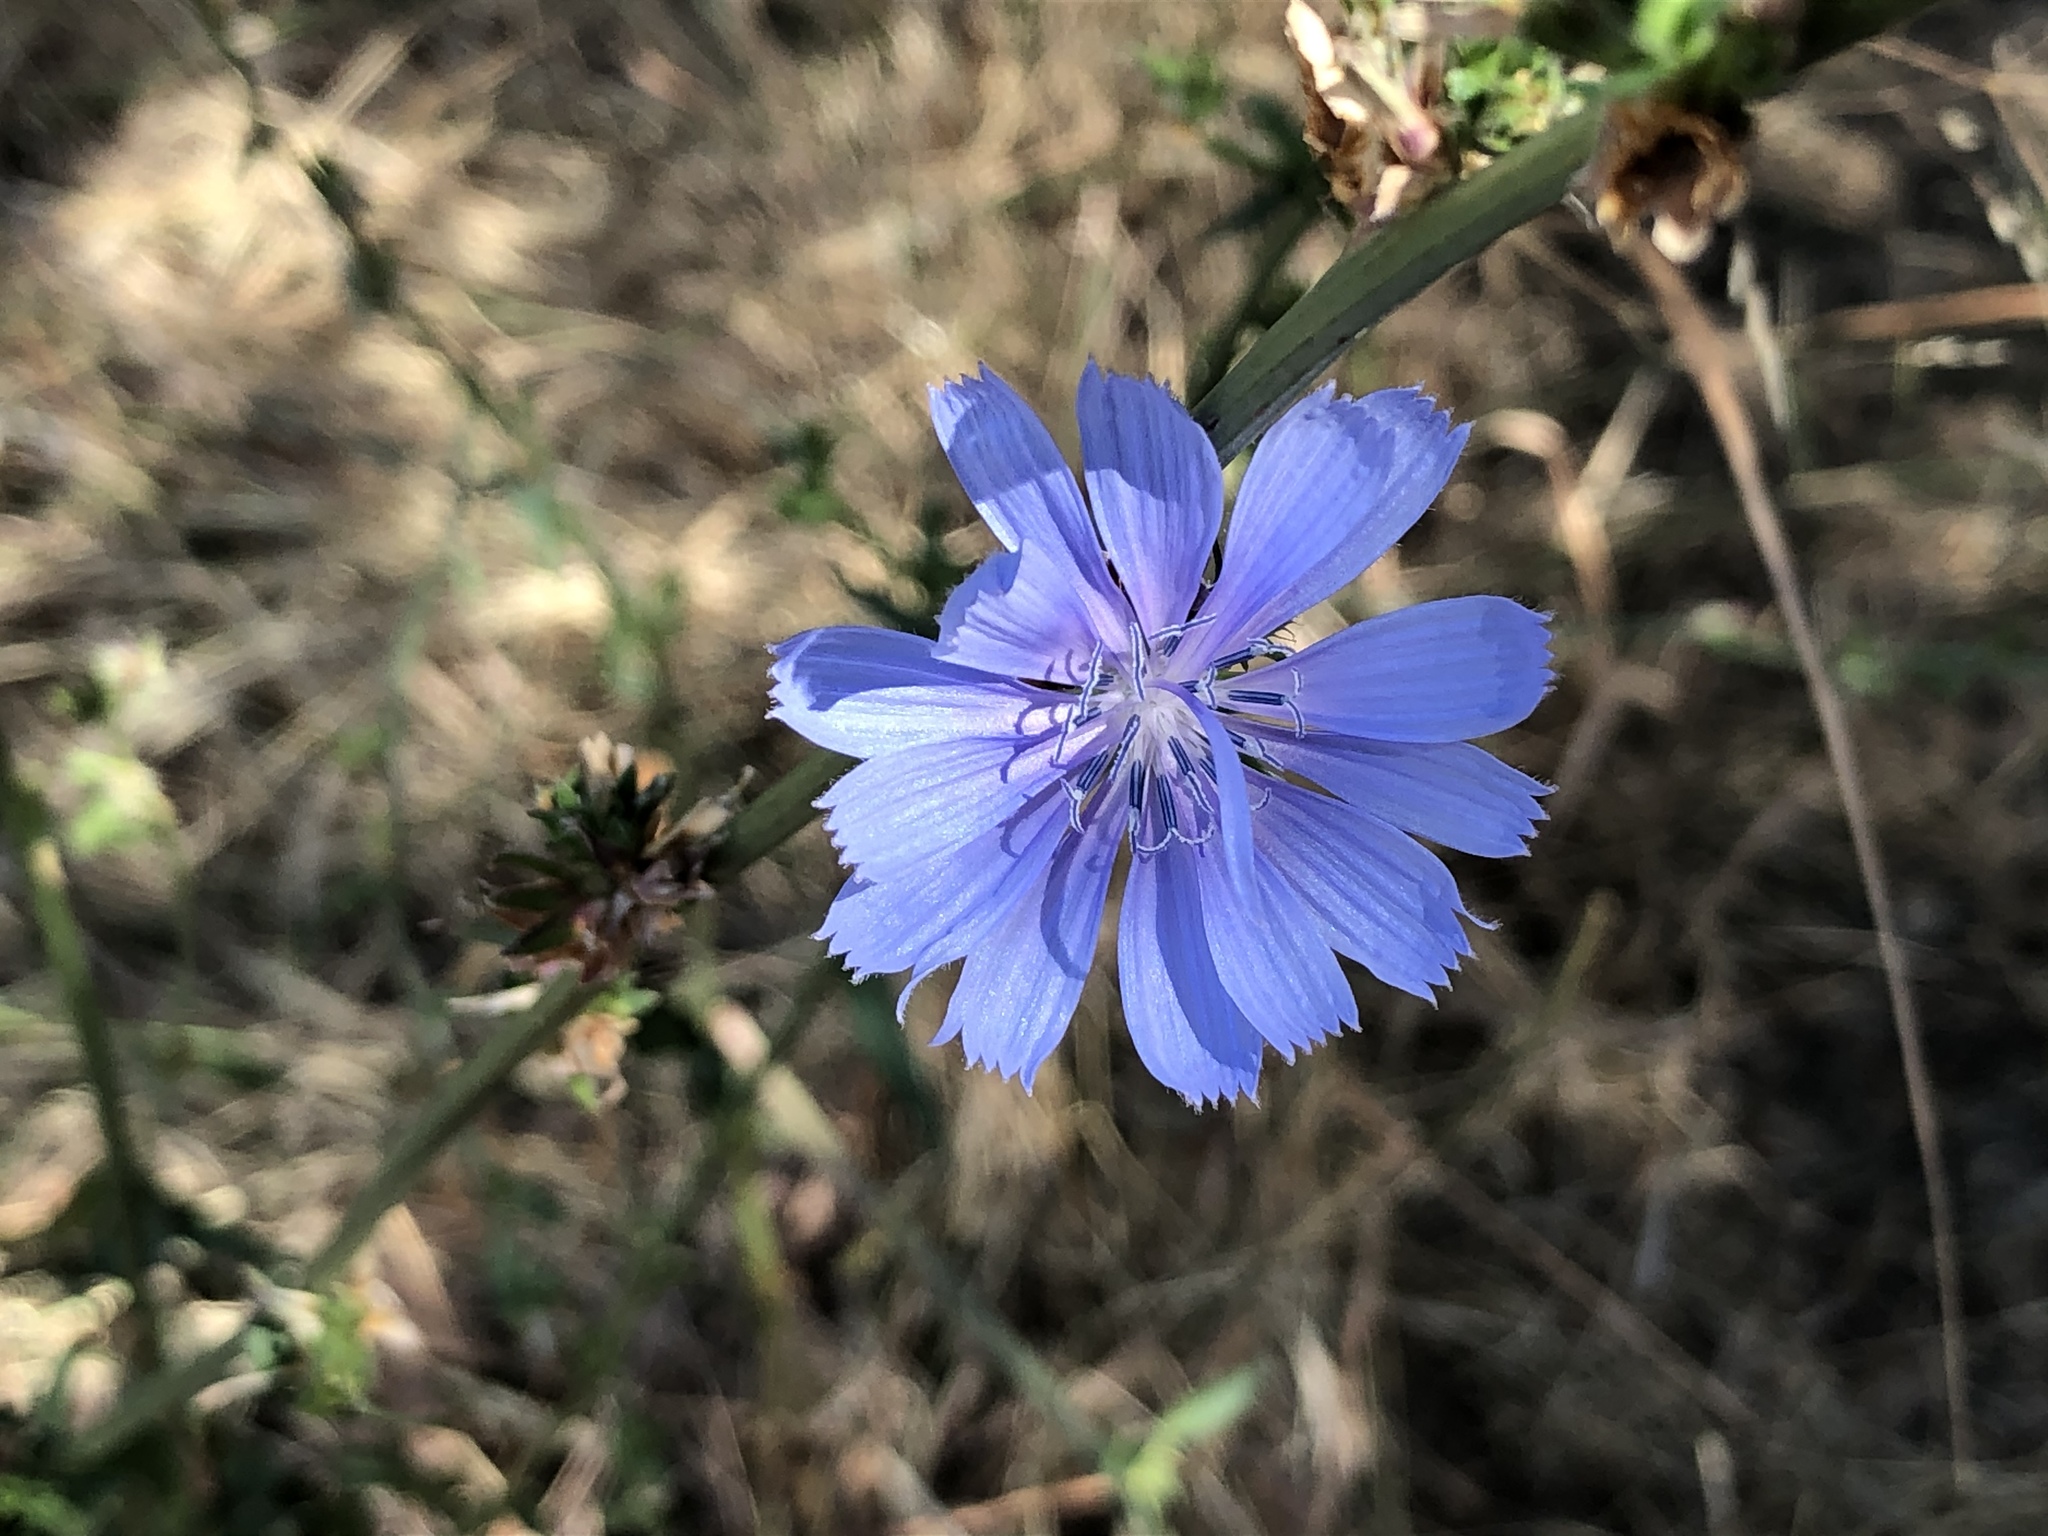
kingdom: Plantae
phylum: Tracheophyta
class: Magnoliopsida
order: Asterales
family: Asteraceae
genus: Cichorium
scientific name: Cichorium intybus
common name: Chicory
